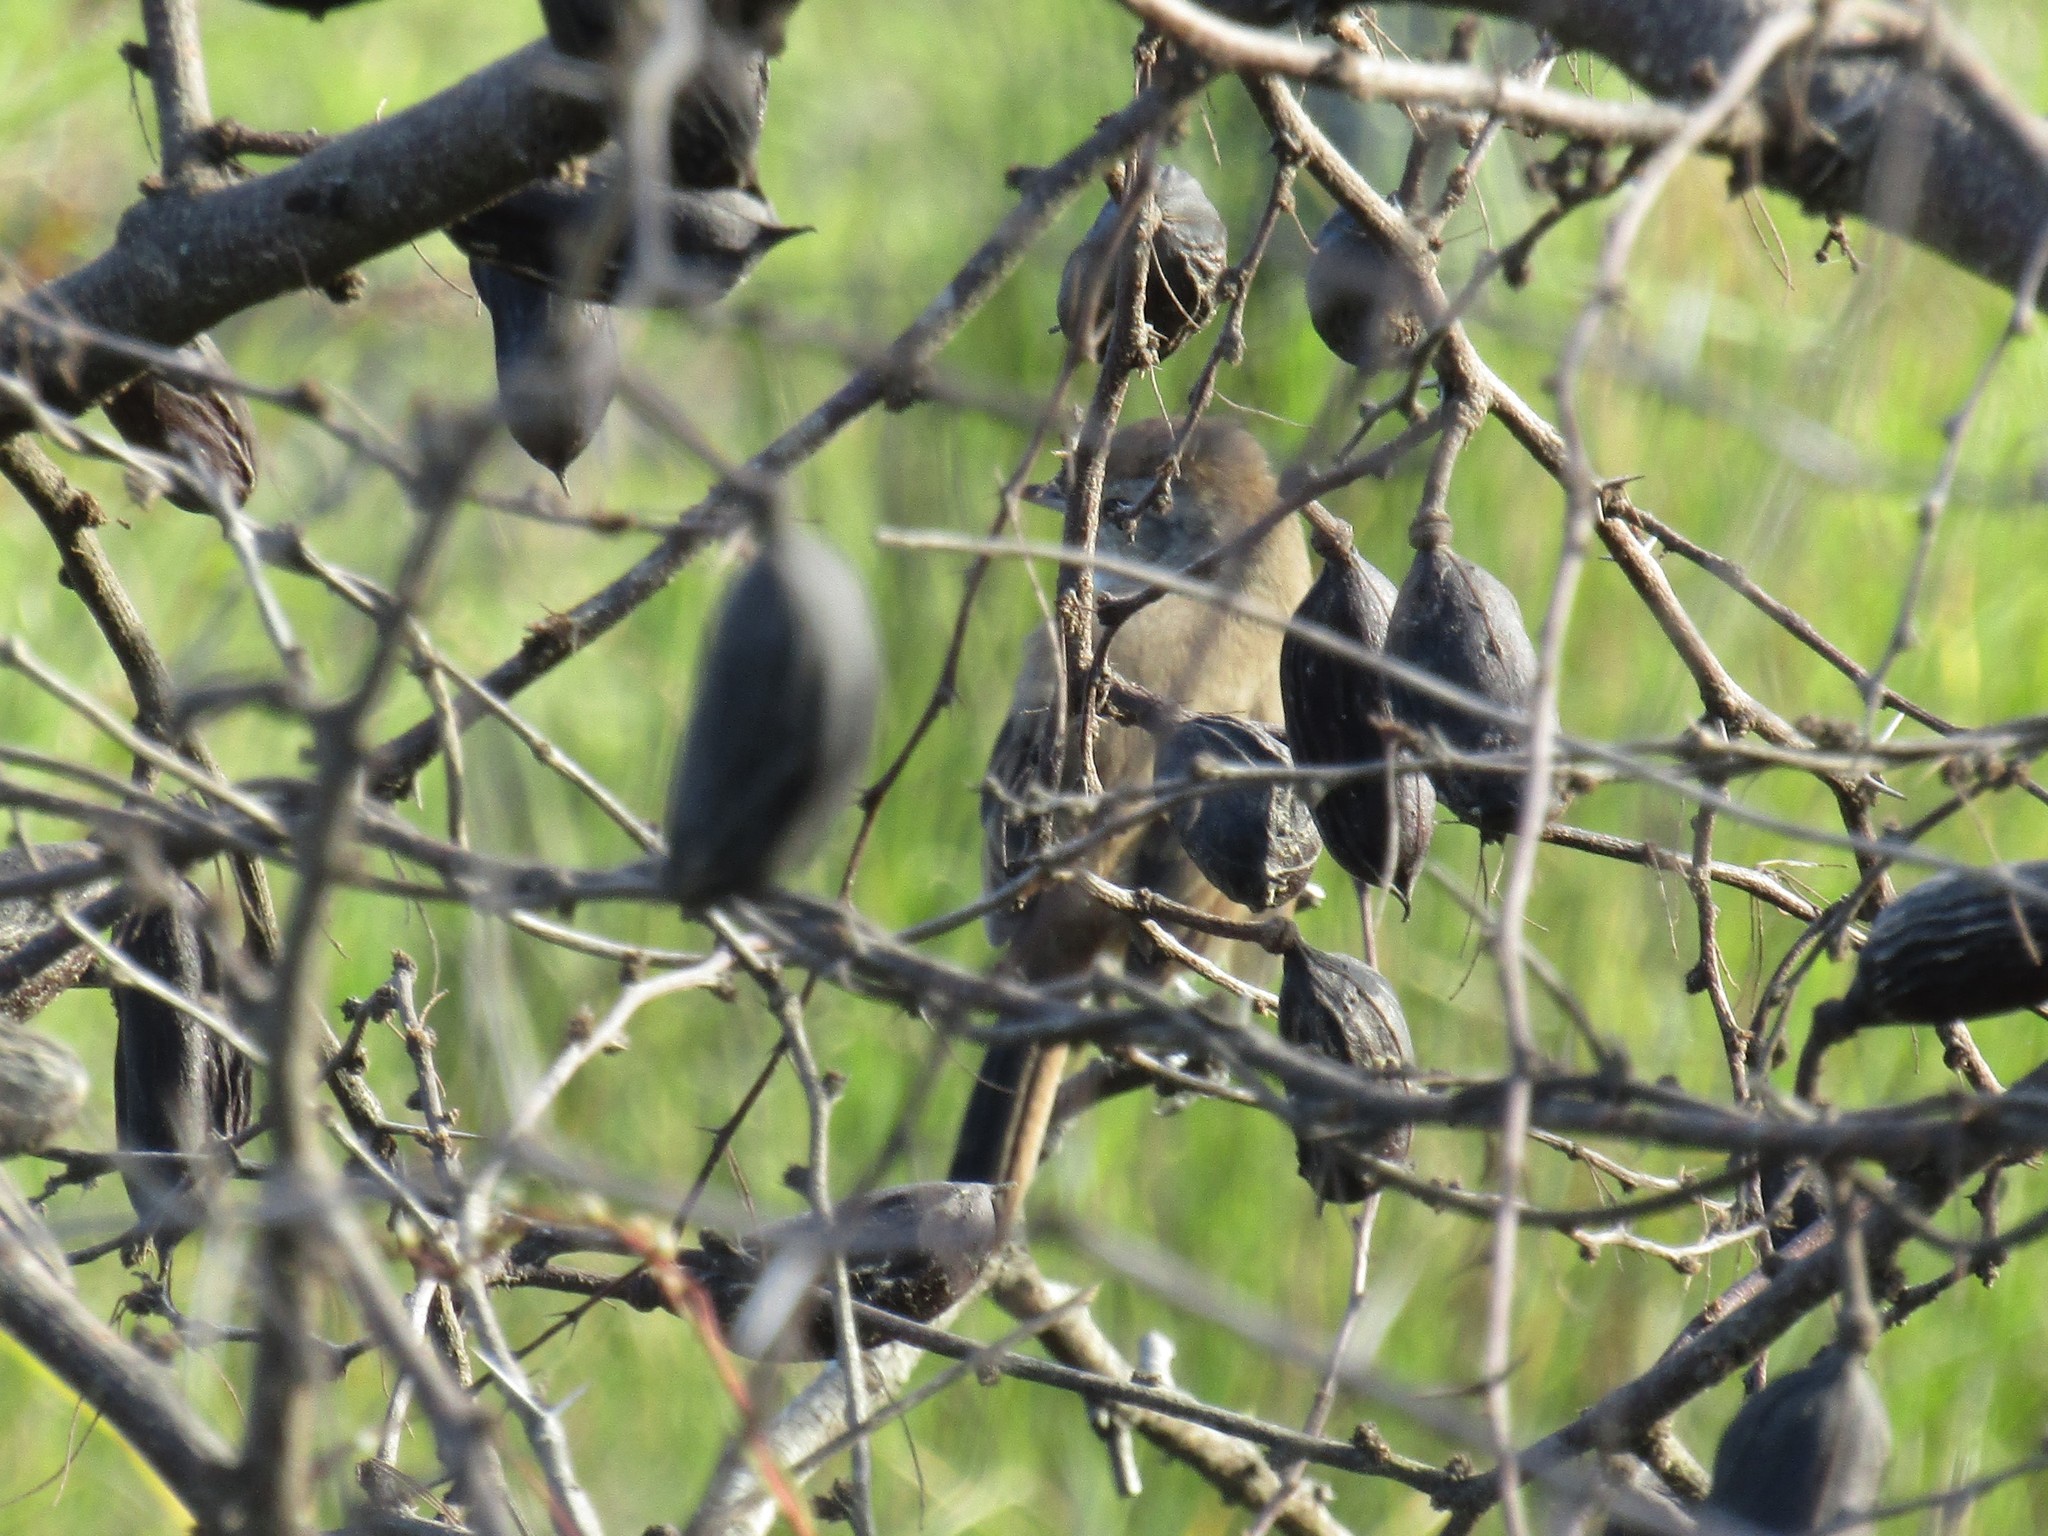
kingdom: Animalia
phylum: Chordata
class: Aves
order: Passeriformes
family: Furnariidae
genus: Schoeniophylax
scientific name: Schoeniophylax phryganophilus
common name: Chotoy spinetail
